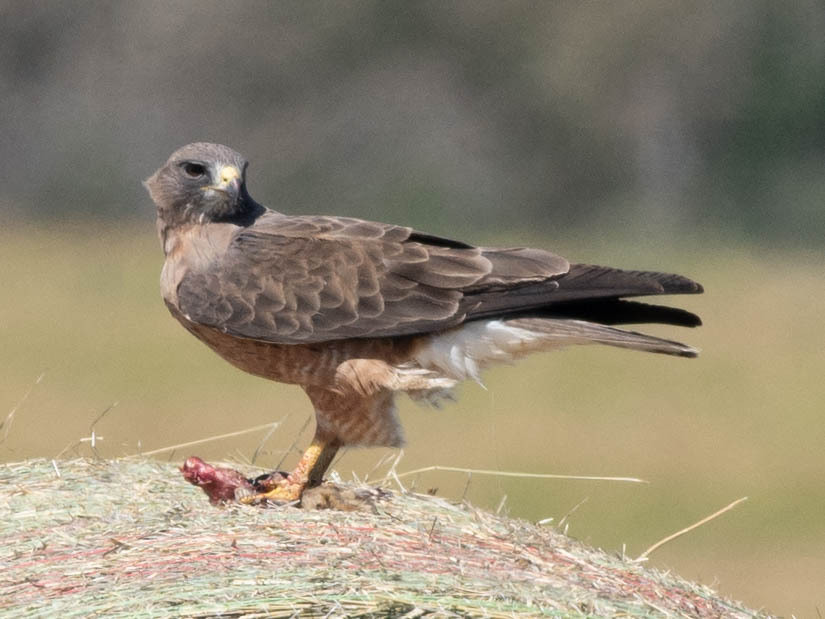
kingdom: Animalia
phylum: Chordata
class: Aves
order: Accipitriformes
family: Accipitridae
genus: Buteo
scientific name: Buteo swainsoni
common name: Swainson's hawk
